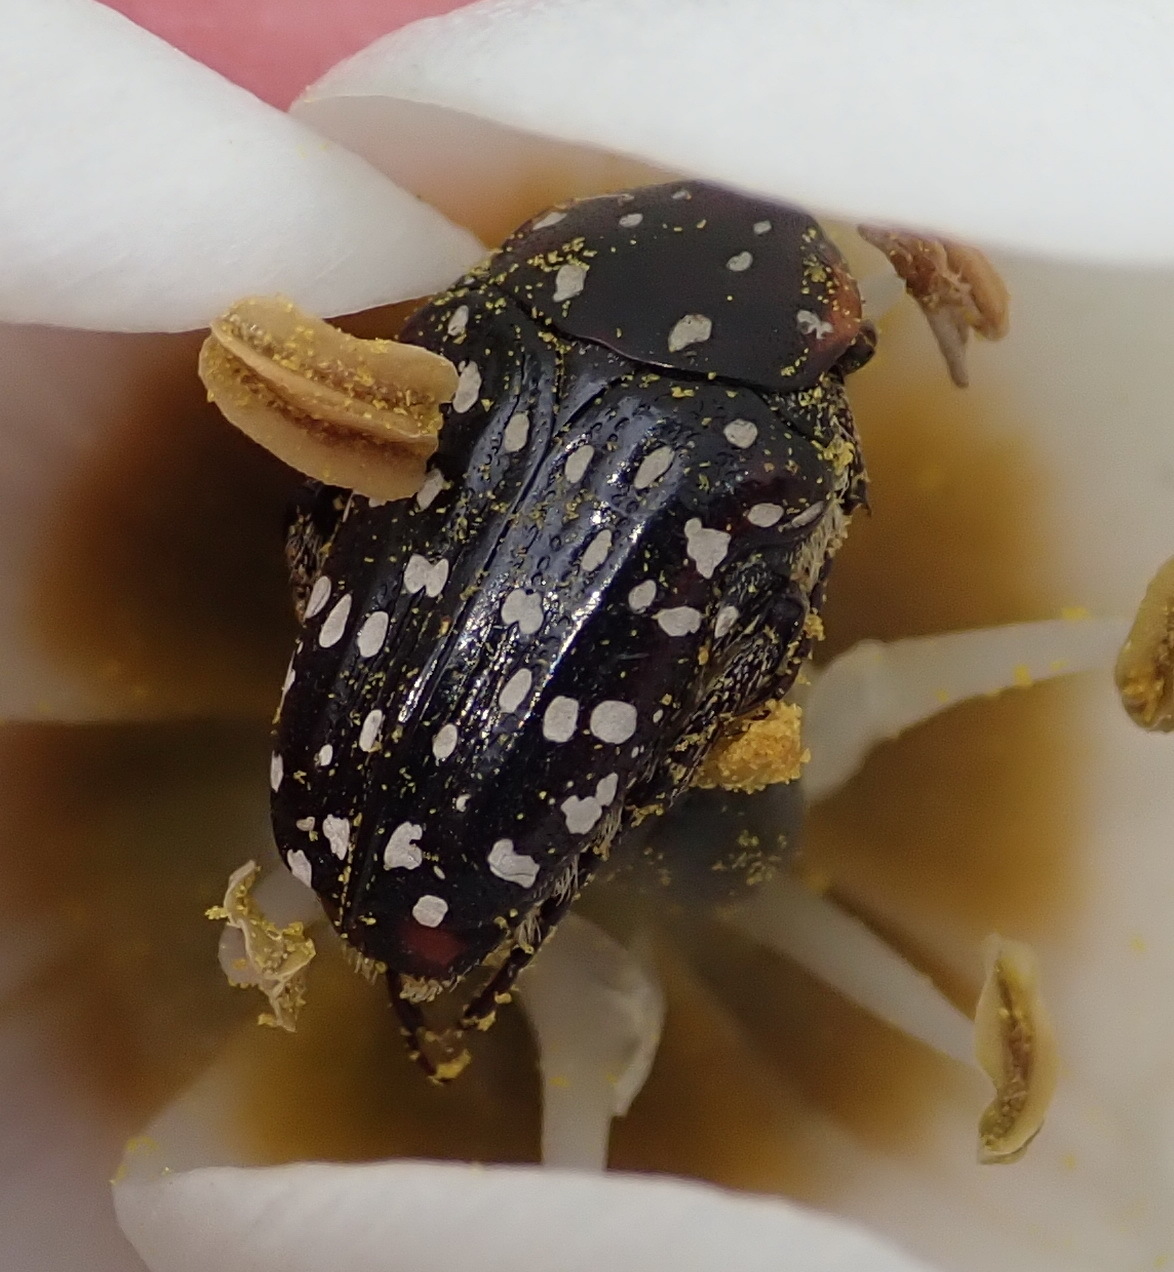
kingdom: Animalia
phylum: Arthropoda
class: Insecta
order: Coleoptera
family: Scarabaeidae
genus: Oxythyrea
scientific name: Oxythyrea
